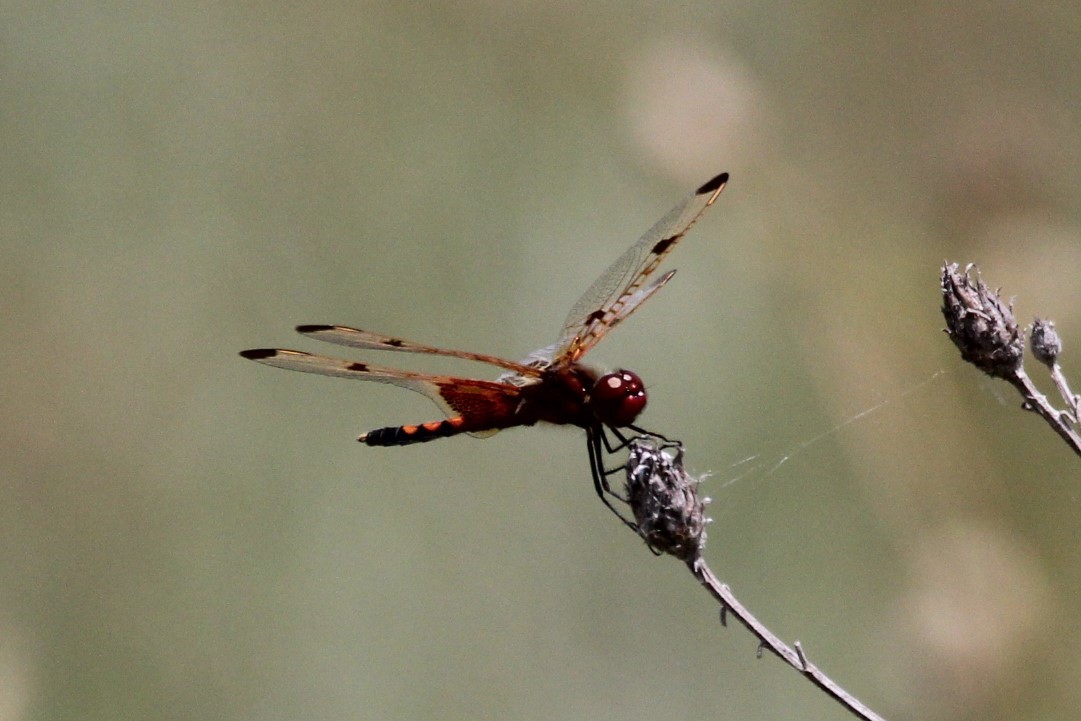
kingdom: Animalia
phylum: Arthropoda
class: Insecta
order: Odonata
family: Libellulidae
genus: Celithemis
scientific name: Celithemis elisa
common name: Calico pennant
